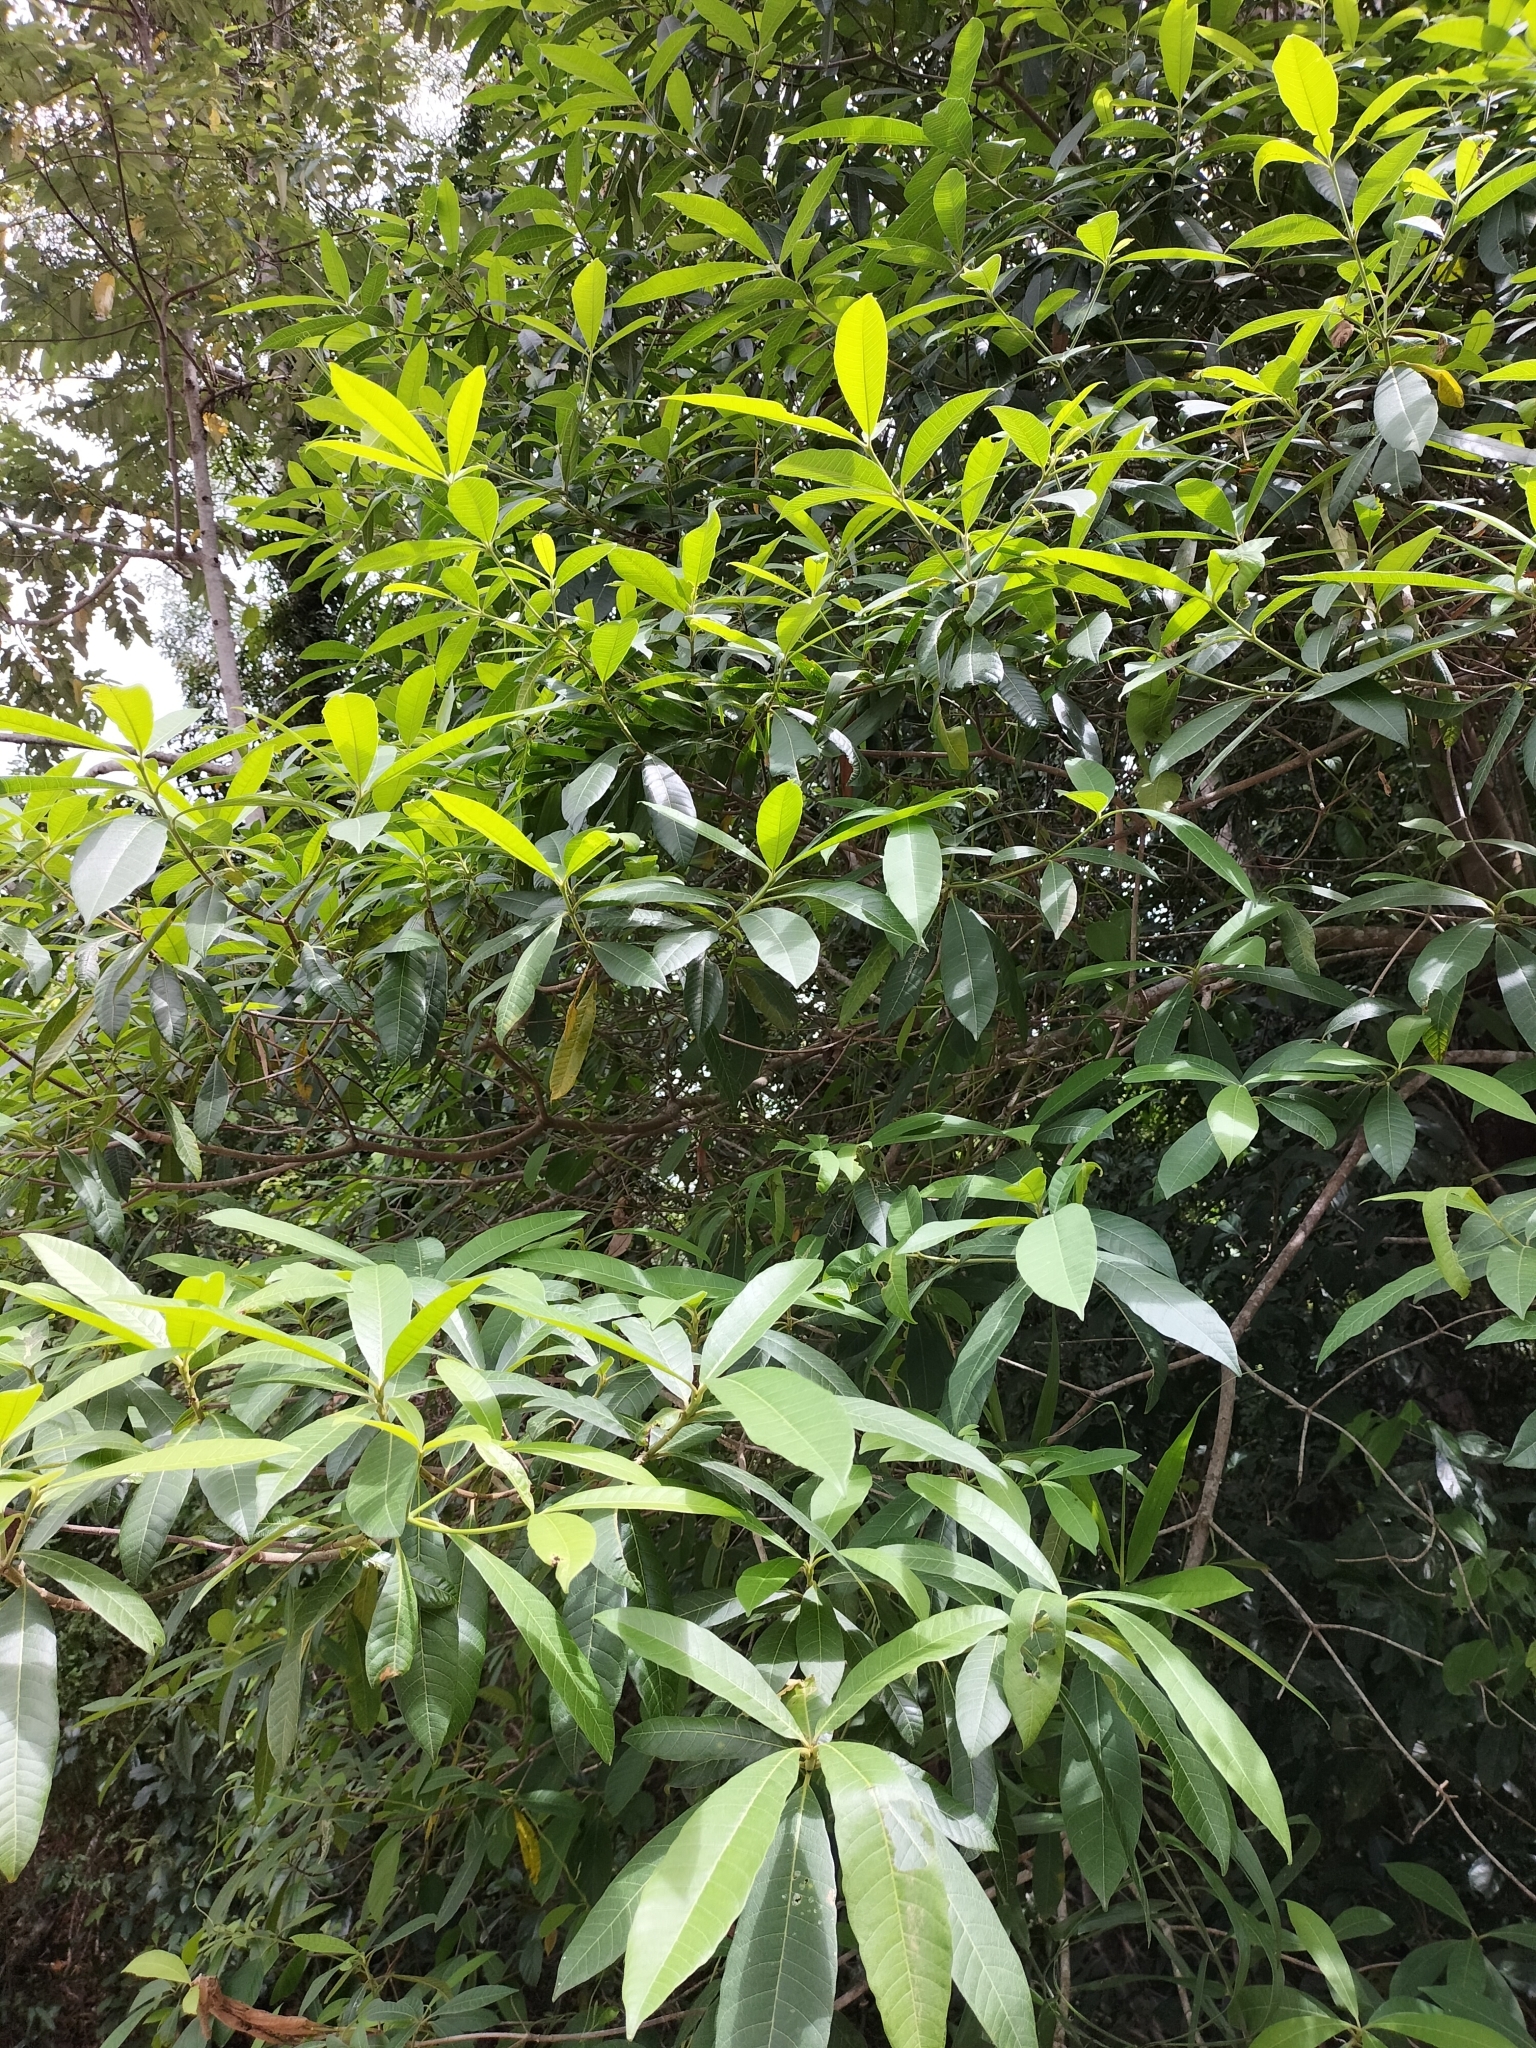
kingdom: Plantae
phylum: Tracheophyta
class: Magnoliopsida
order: Gentianales
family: Apocynaceae
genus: Alstonia
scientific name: Alstonia muelleriana
